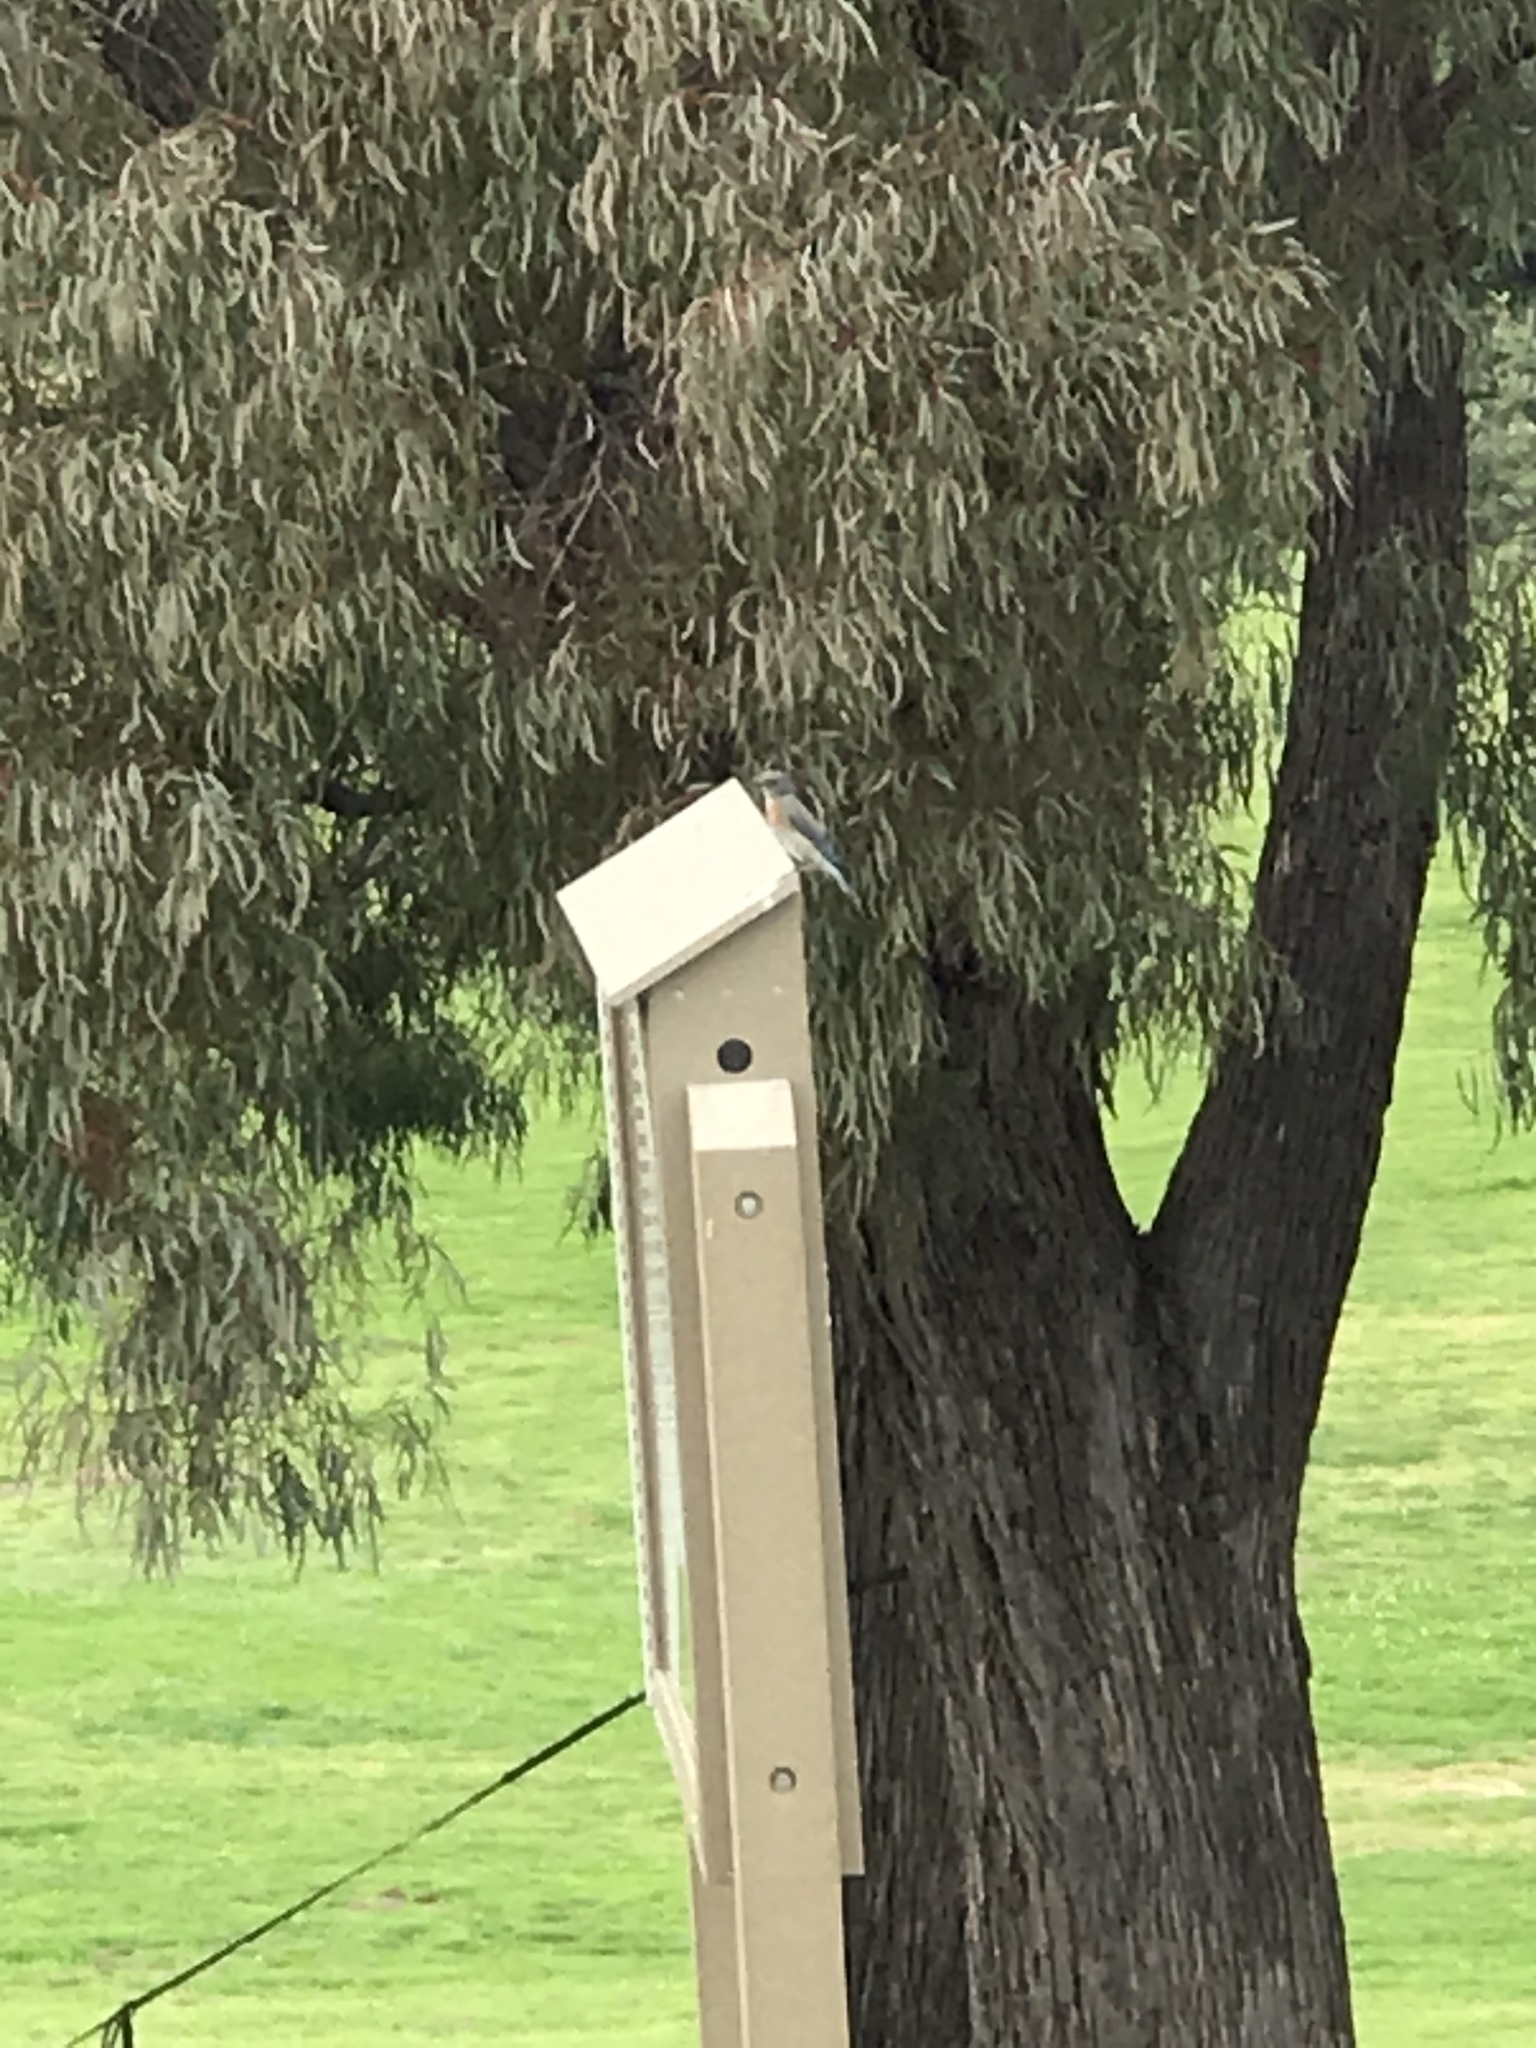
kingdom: Animalia
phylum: Chordata
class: Aves
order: Passeriformes
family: Turdidae
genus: Sialia
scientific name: Sialia mexicana
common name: Western bluebird
